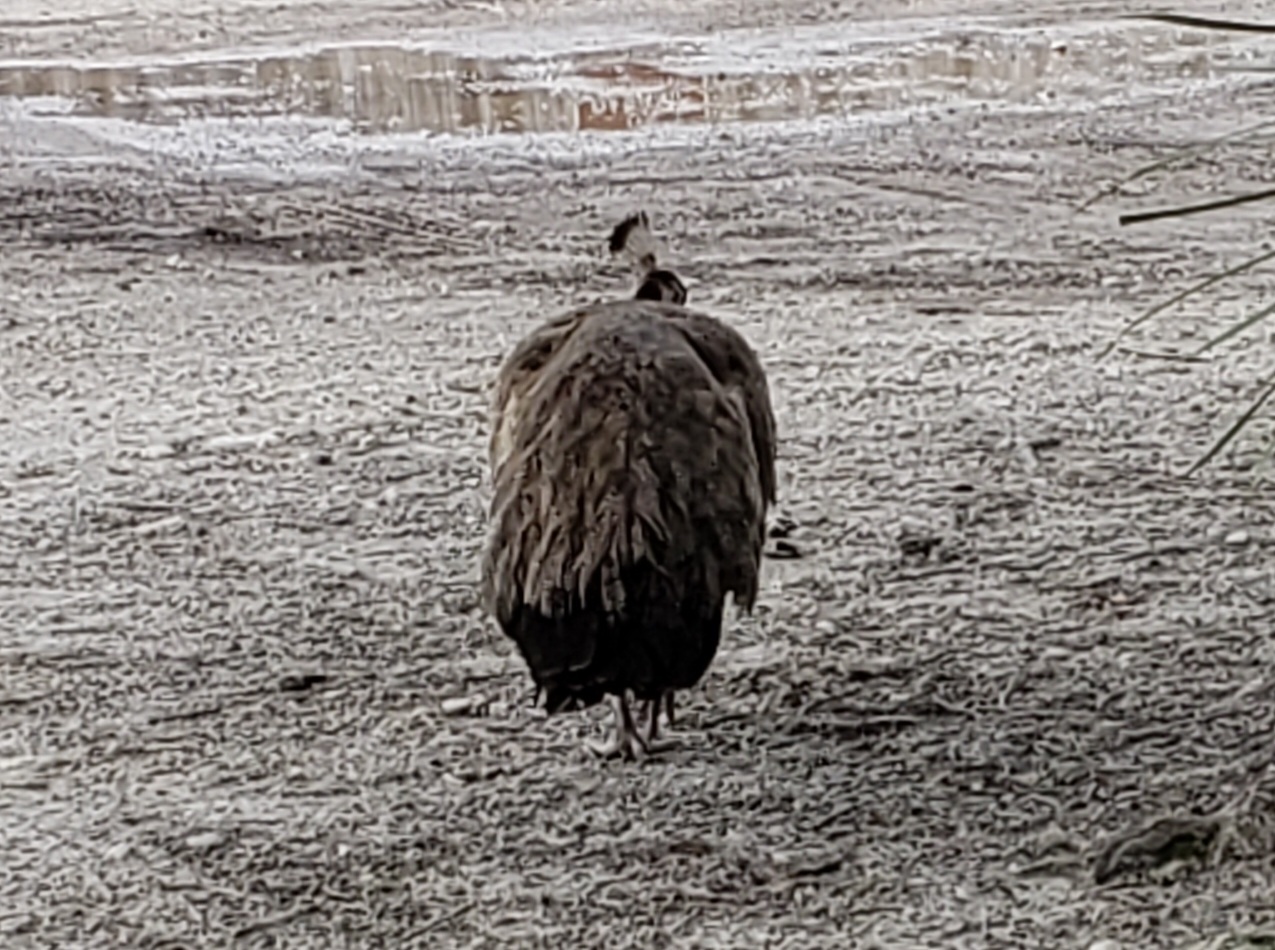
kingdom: Animalia
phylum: Chordata
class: Aves
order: Galliformes
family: Phasianidae
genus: Pavo
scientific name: Pavo cristatus
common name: Indian peafowl
